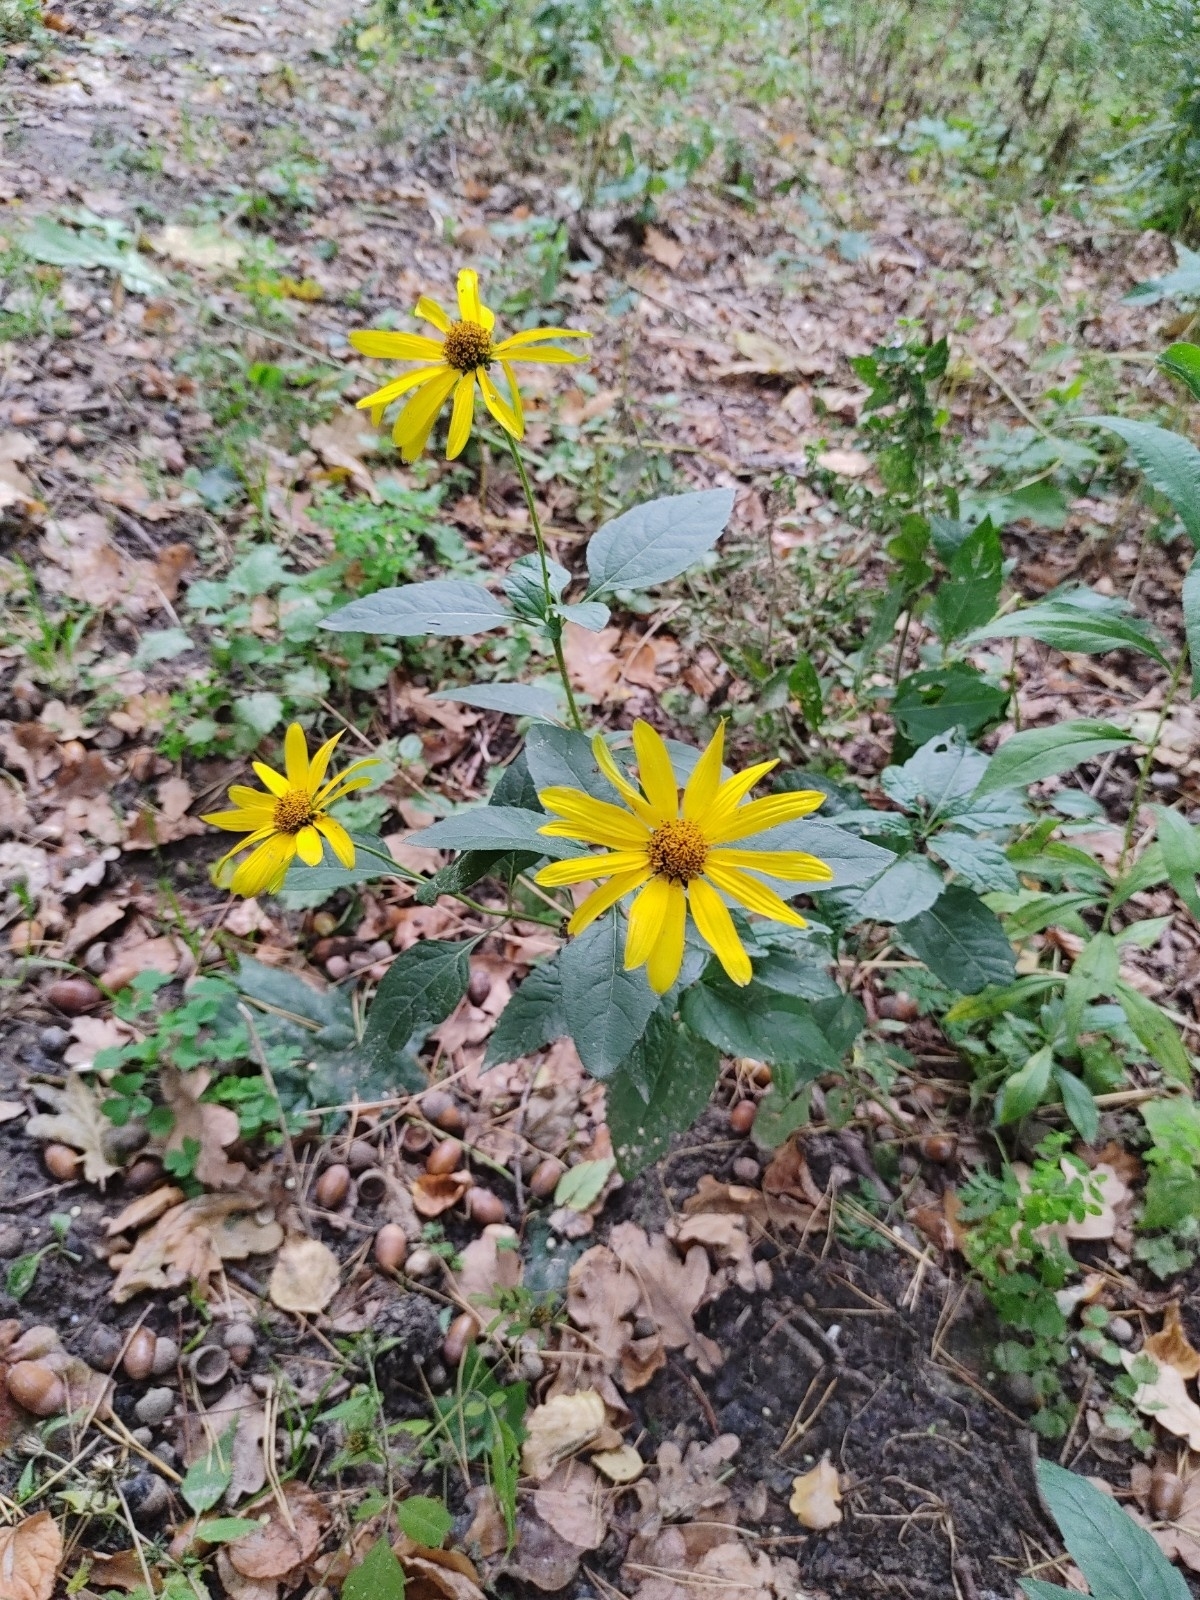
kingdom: Plantae
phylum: Tracheophyta
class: Magnoliopsida
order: Asterales
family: Asteraceae
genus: Helianthus
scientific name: Helianthus tuberosus
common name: Jerusalem artichoke
